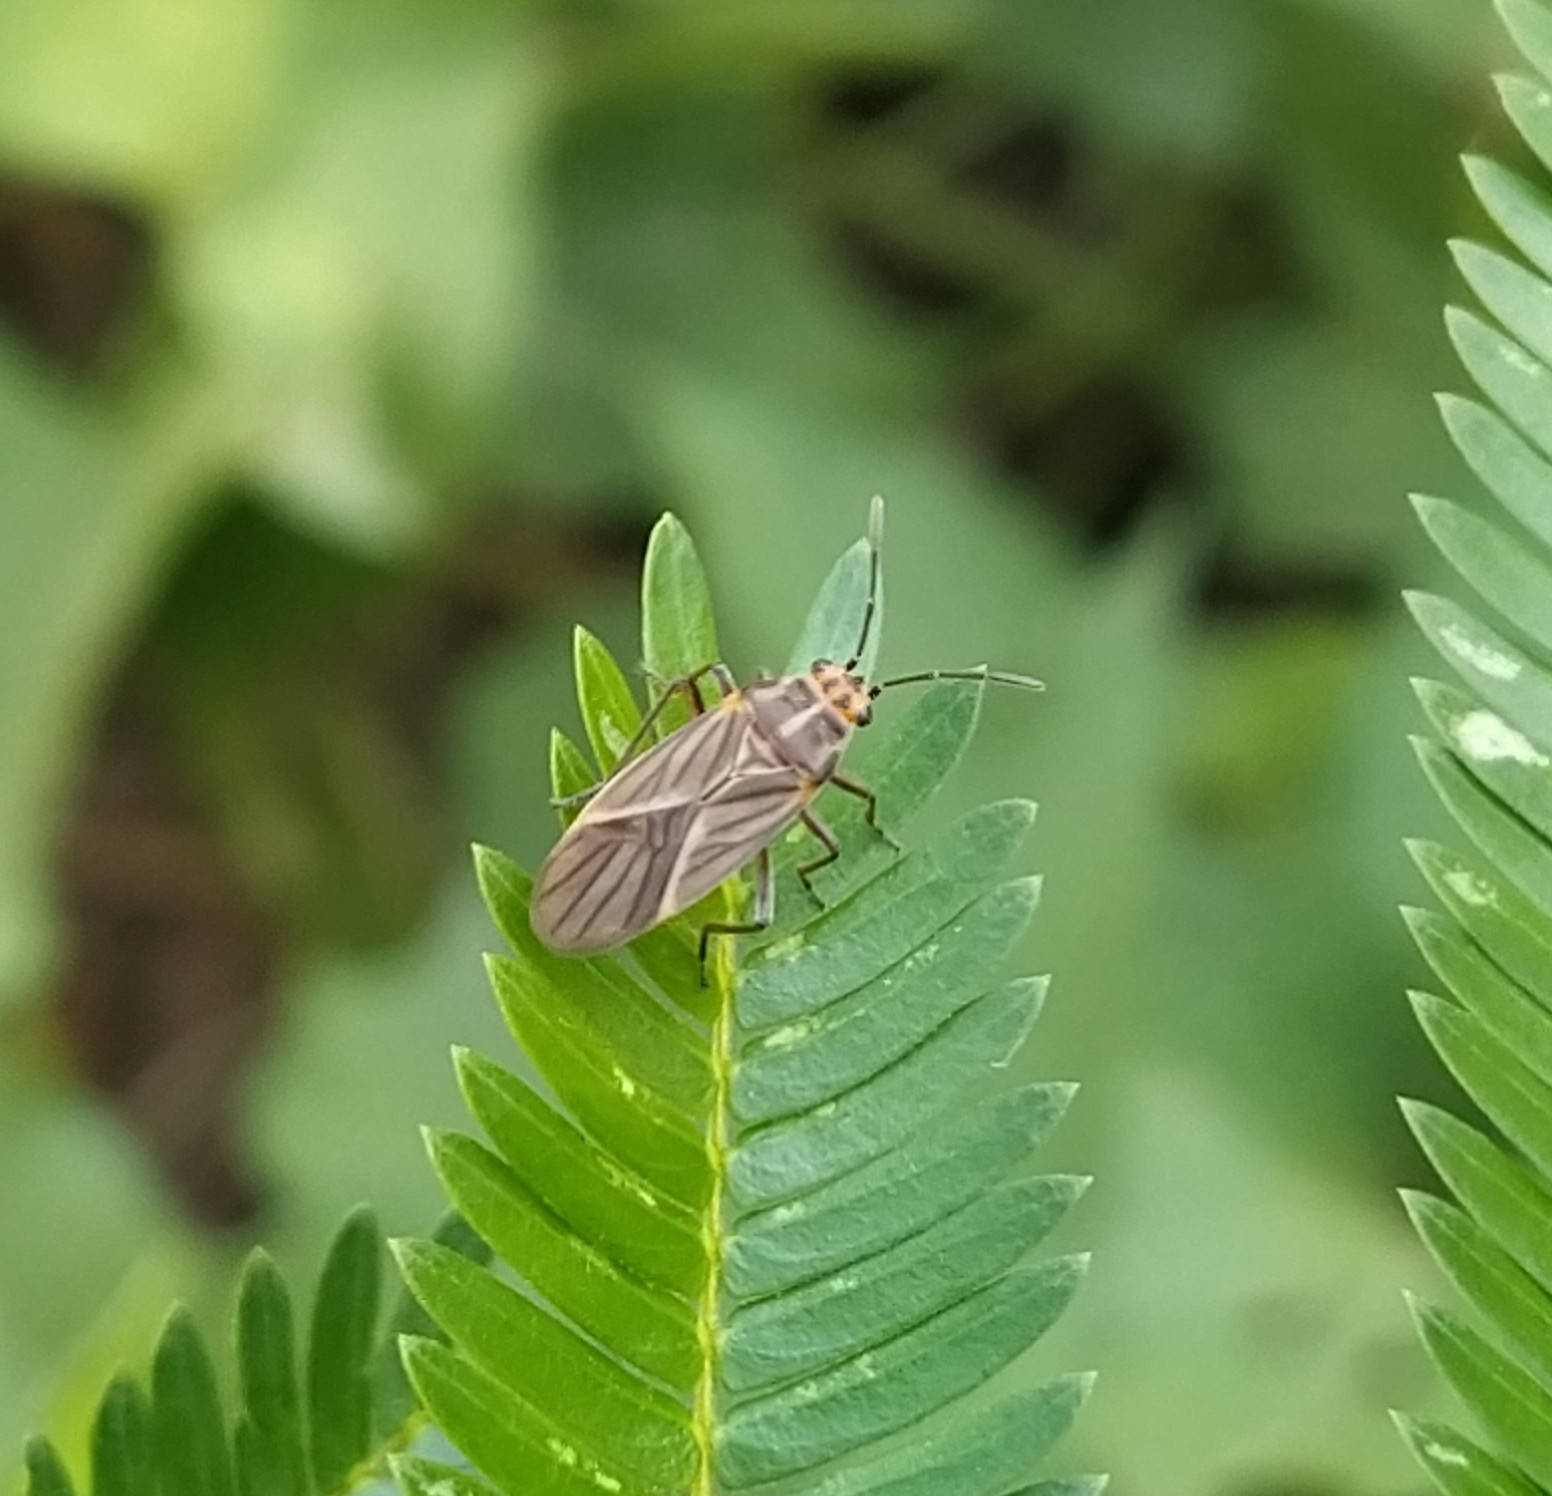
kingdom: Animalia
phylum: Arthropoda
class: Insecta
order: Hemiptera
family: Lygaeidae
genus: Torvochrimnus
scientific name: Torvochrimnus poeyi
